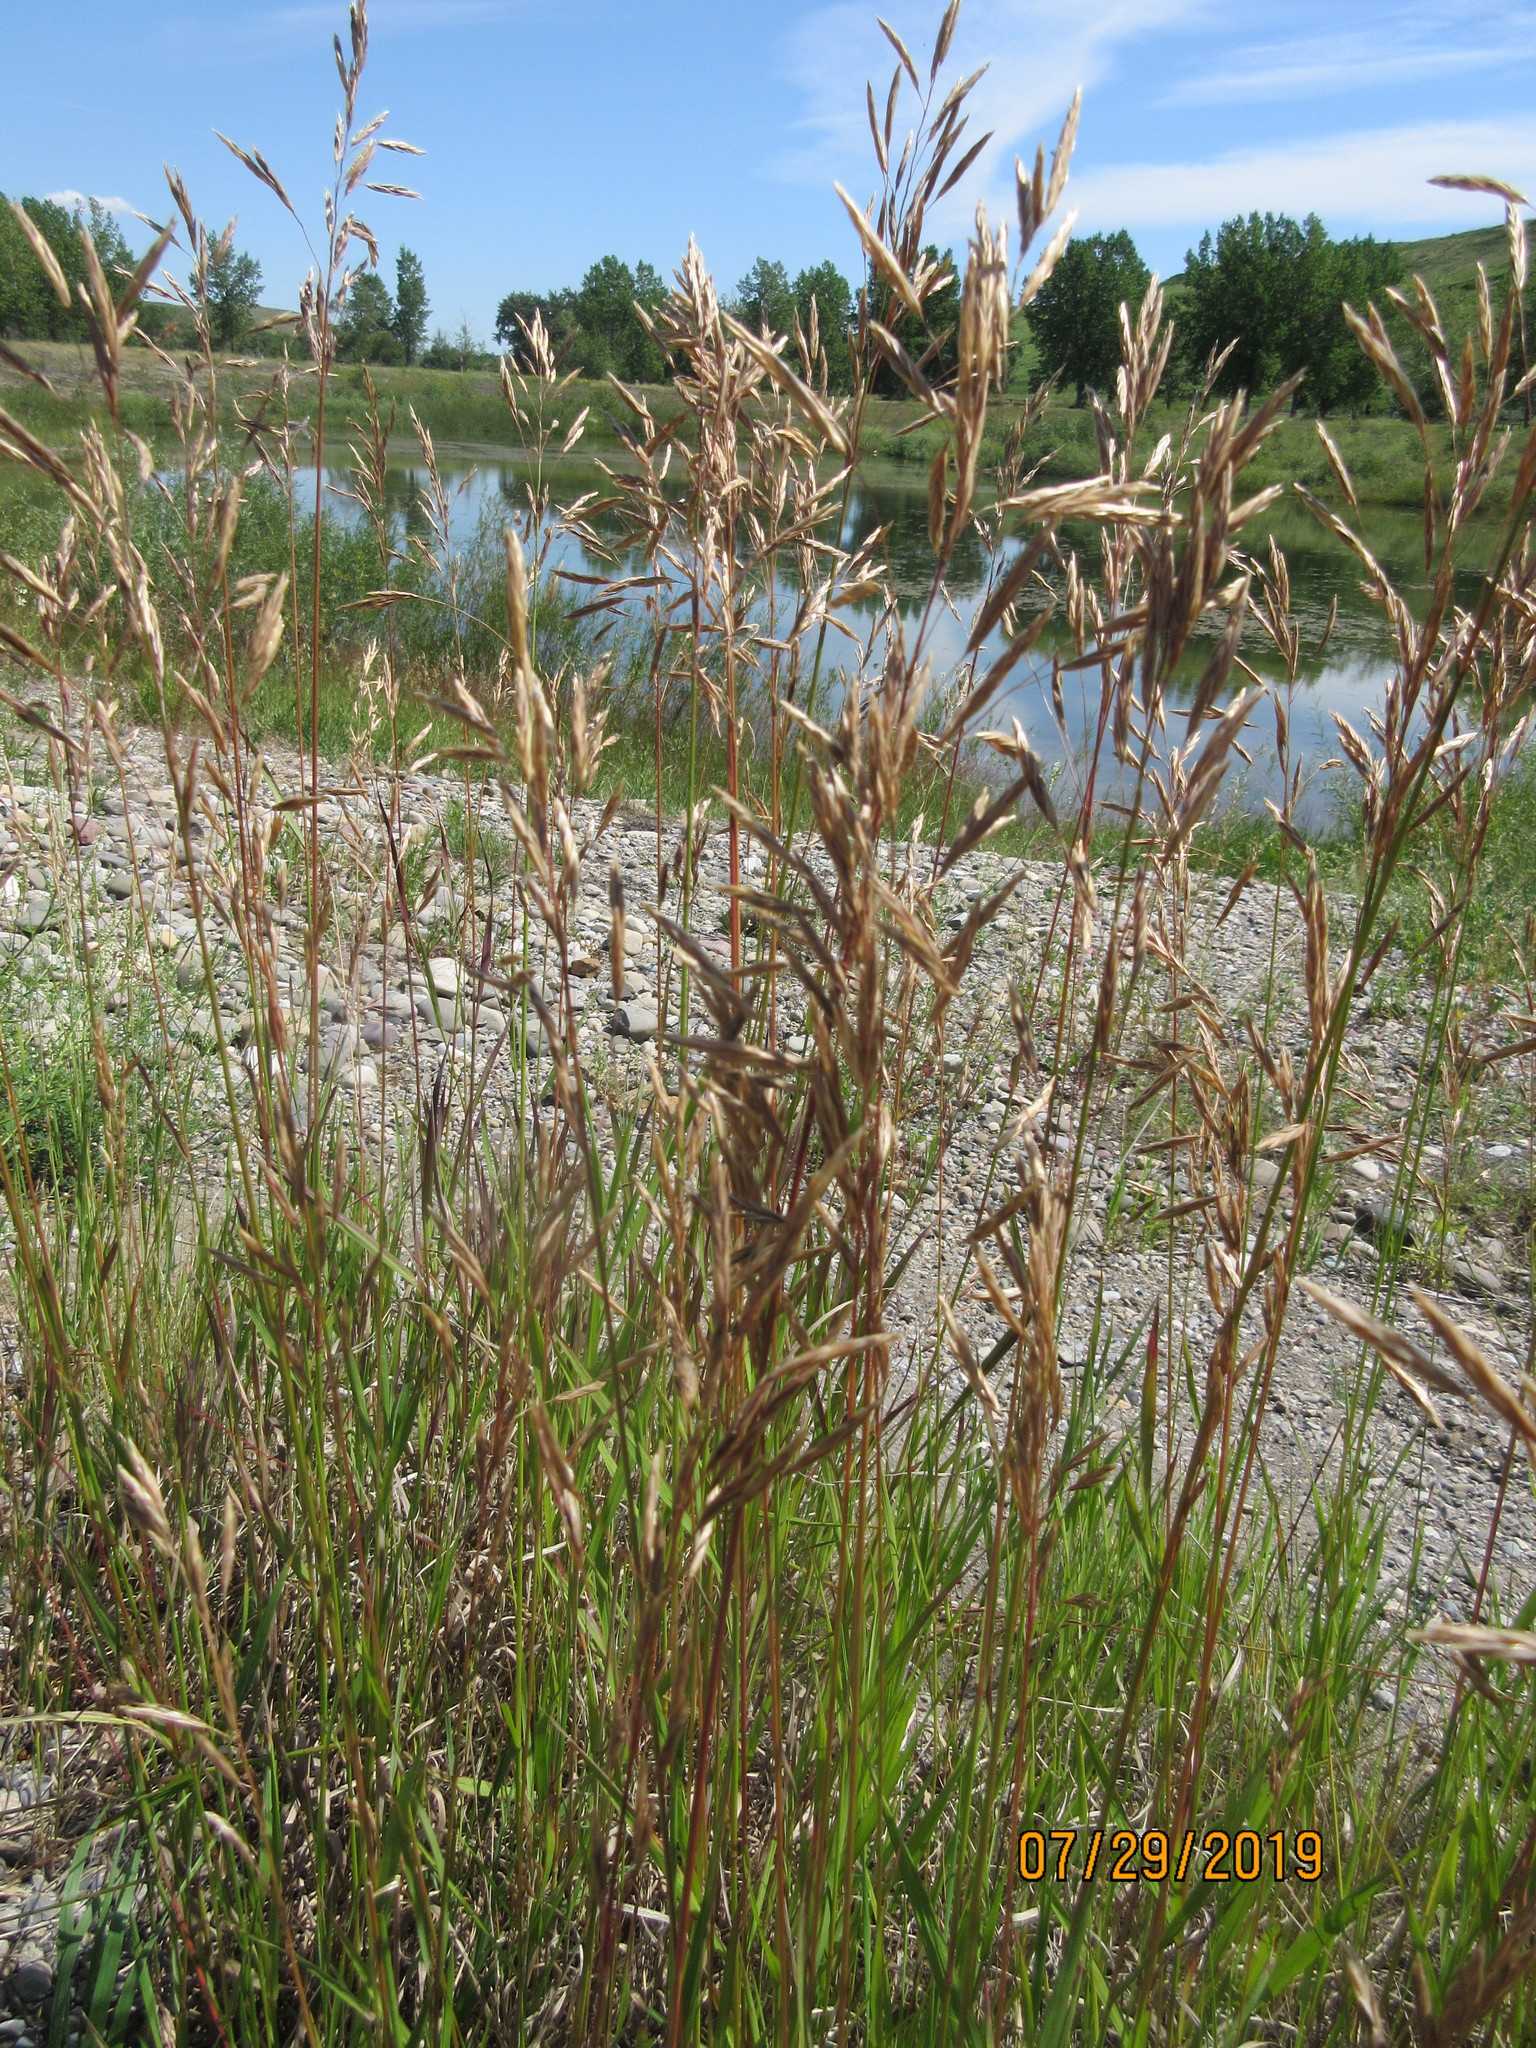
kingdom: Plantae
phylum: Tracheophyta
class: Liliopsida
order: Poales
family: Poaceae
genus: Bromus
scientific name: Bromus inermis
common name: Smooth brome
